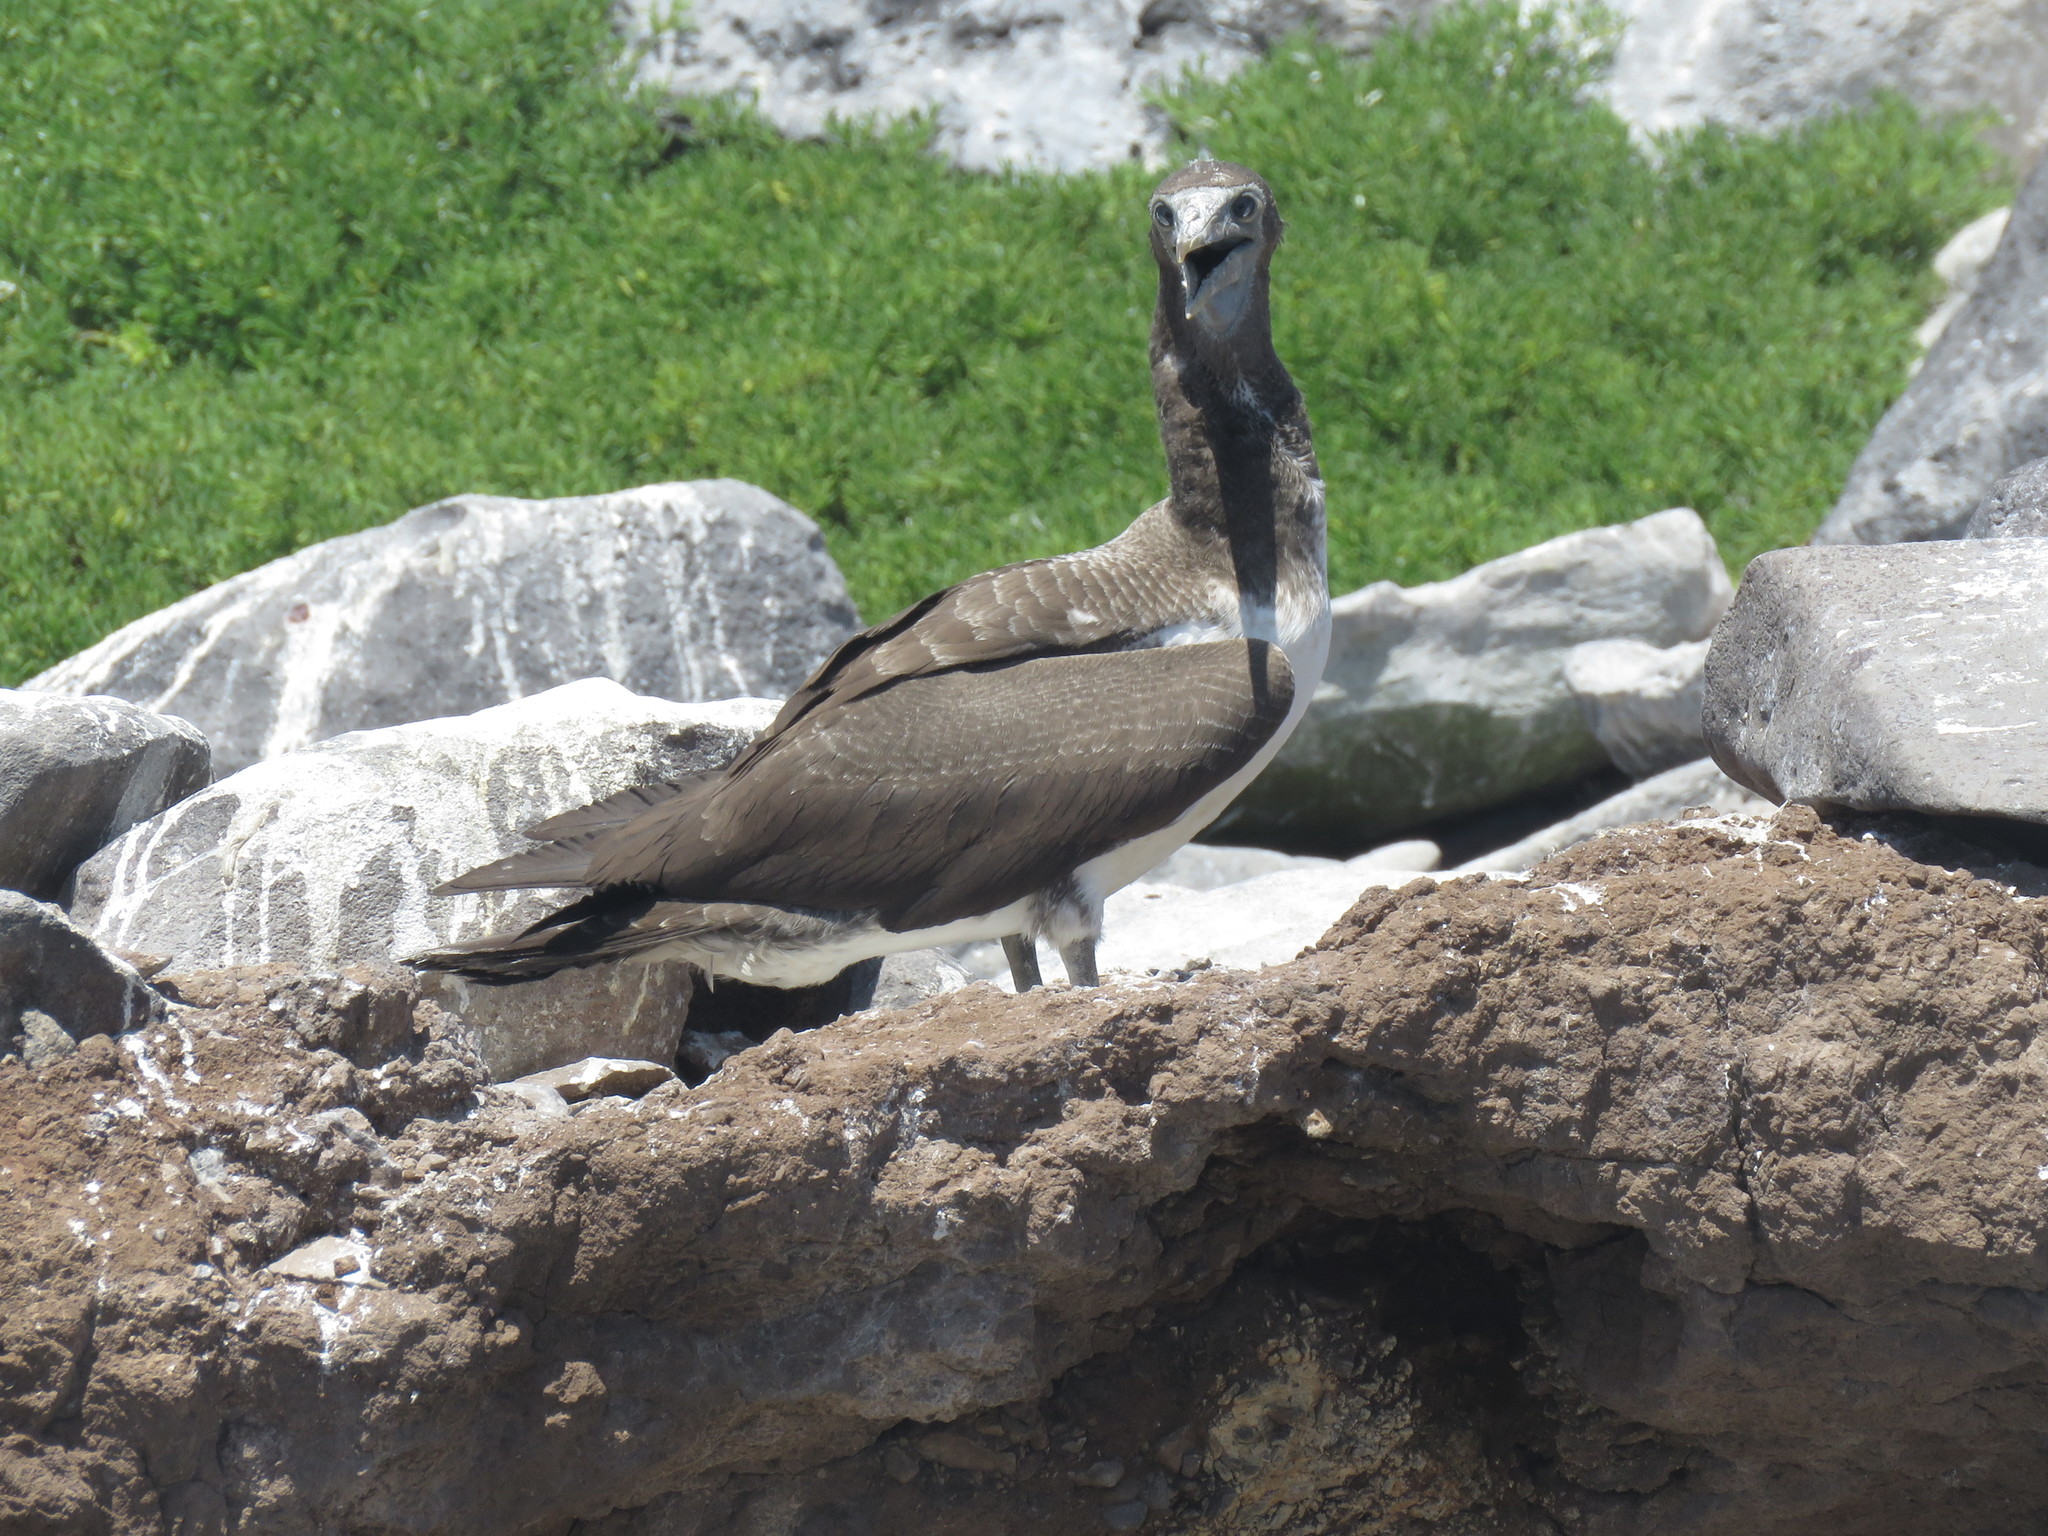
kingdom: Animalia
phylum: Chordata
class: Aves
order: Suliformes
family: Sulidae
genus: Sula
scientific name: Sula granti
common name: Nazca booby
